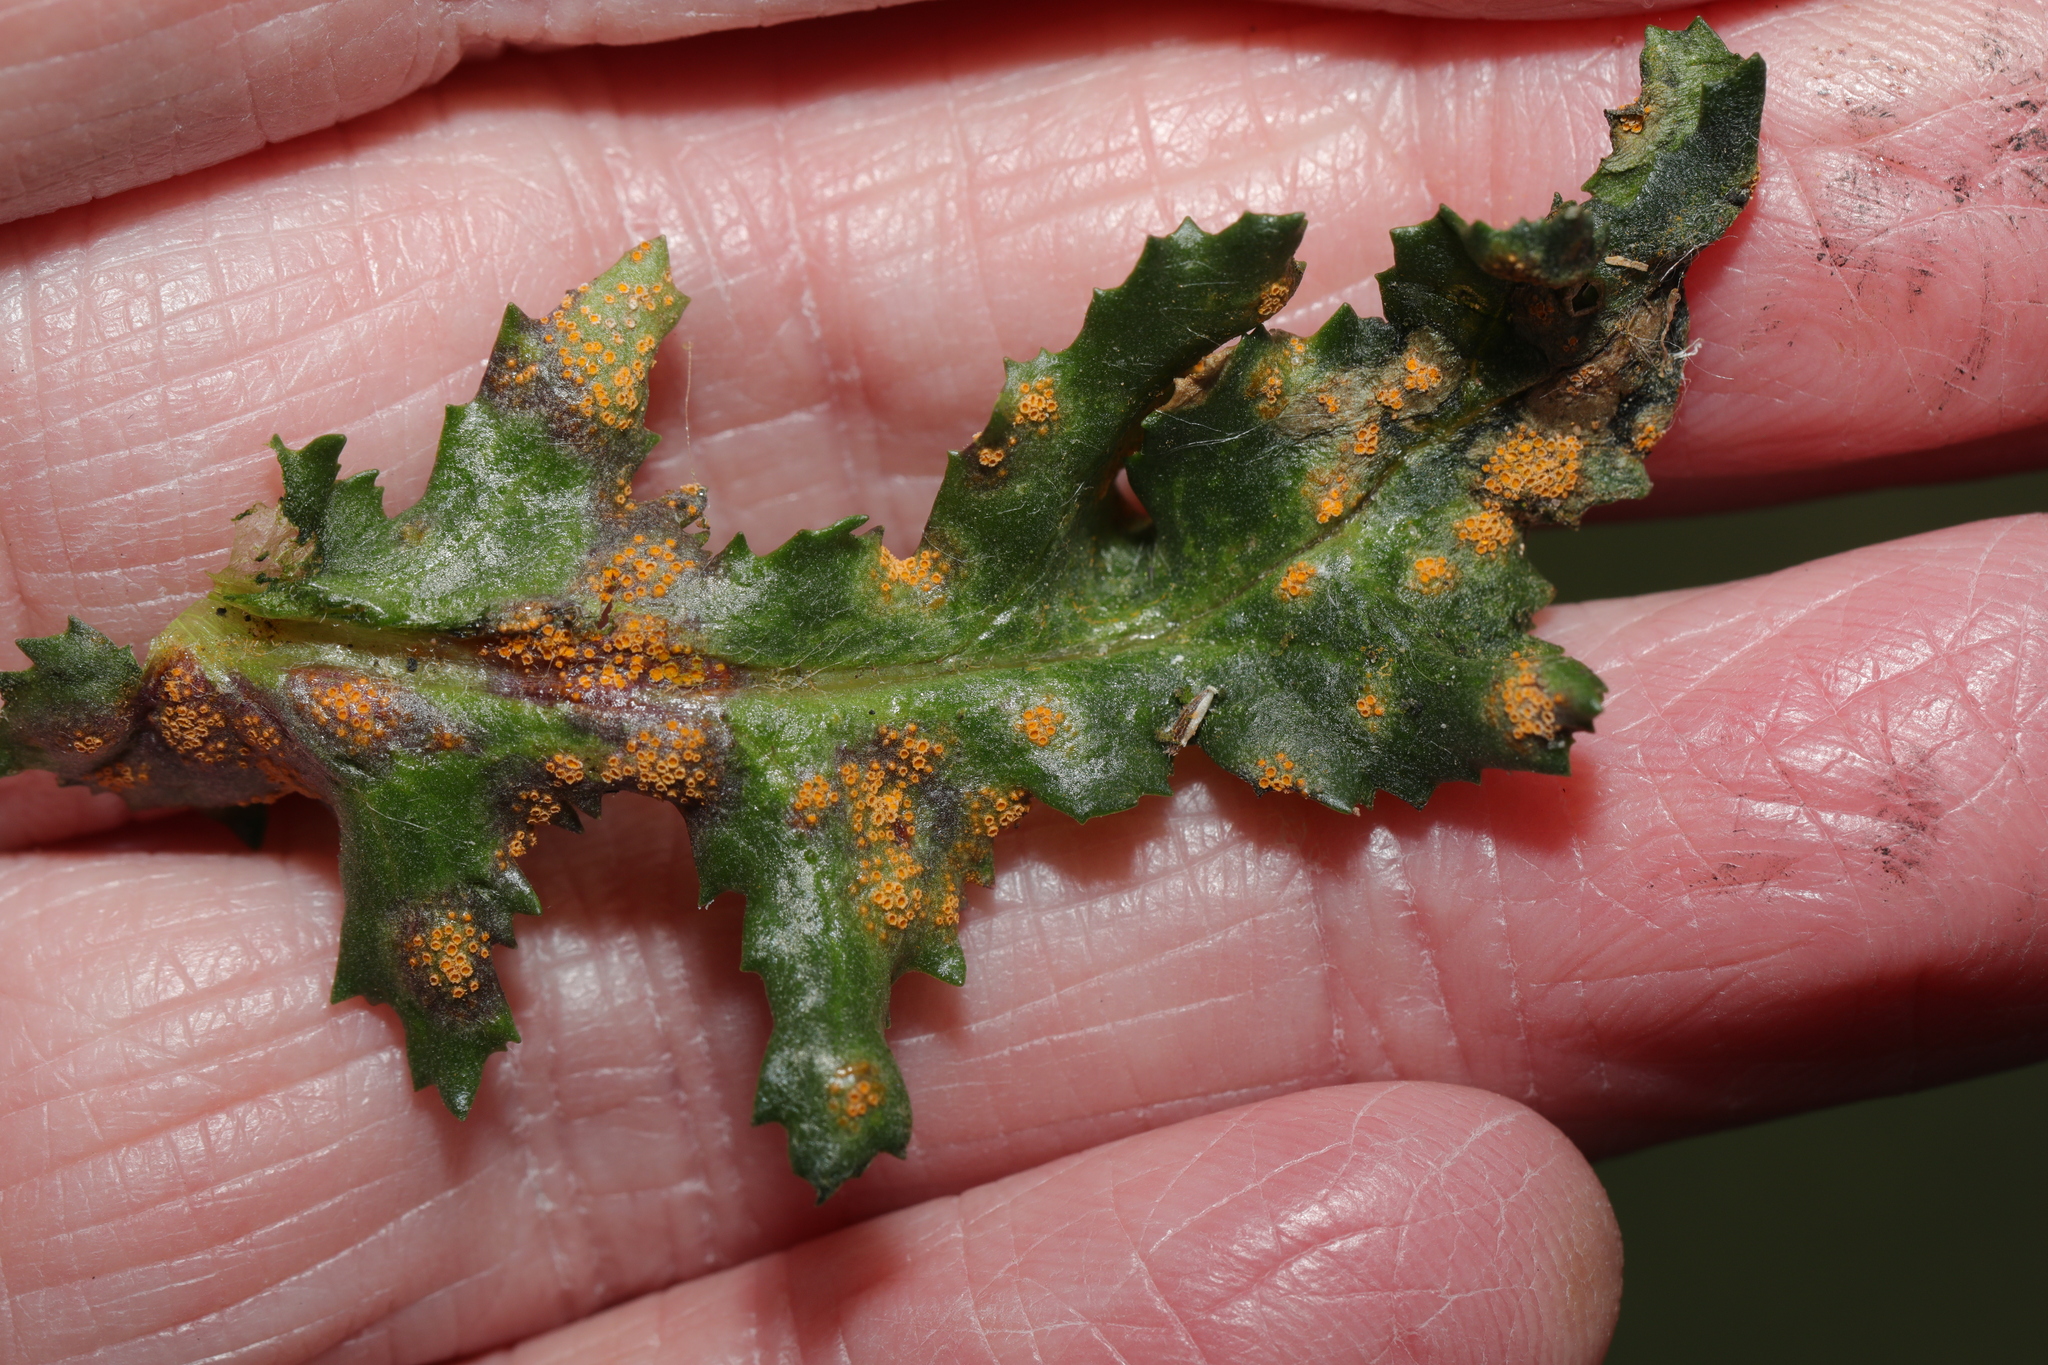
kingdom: Fungi
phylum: Basidiomycota
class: Pucciniomycetes
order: Pucciniales
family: Pucciniaceae
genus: Puccinia
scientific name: Puccinia lagenophorae
